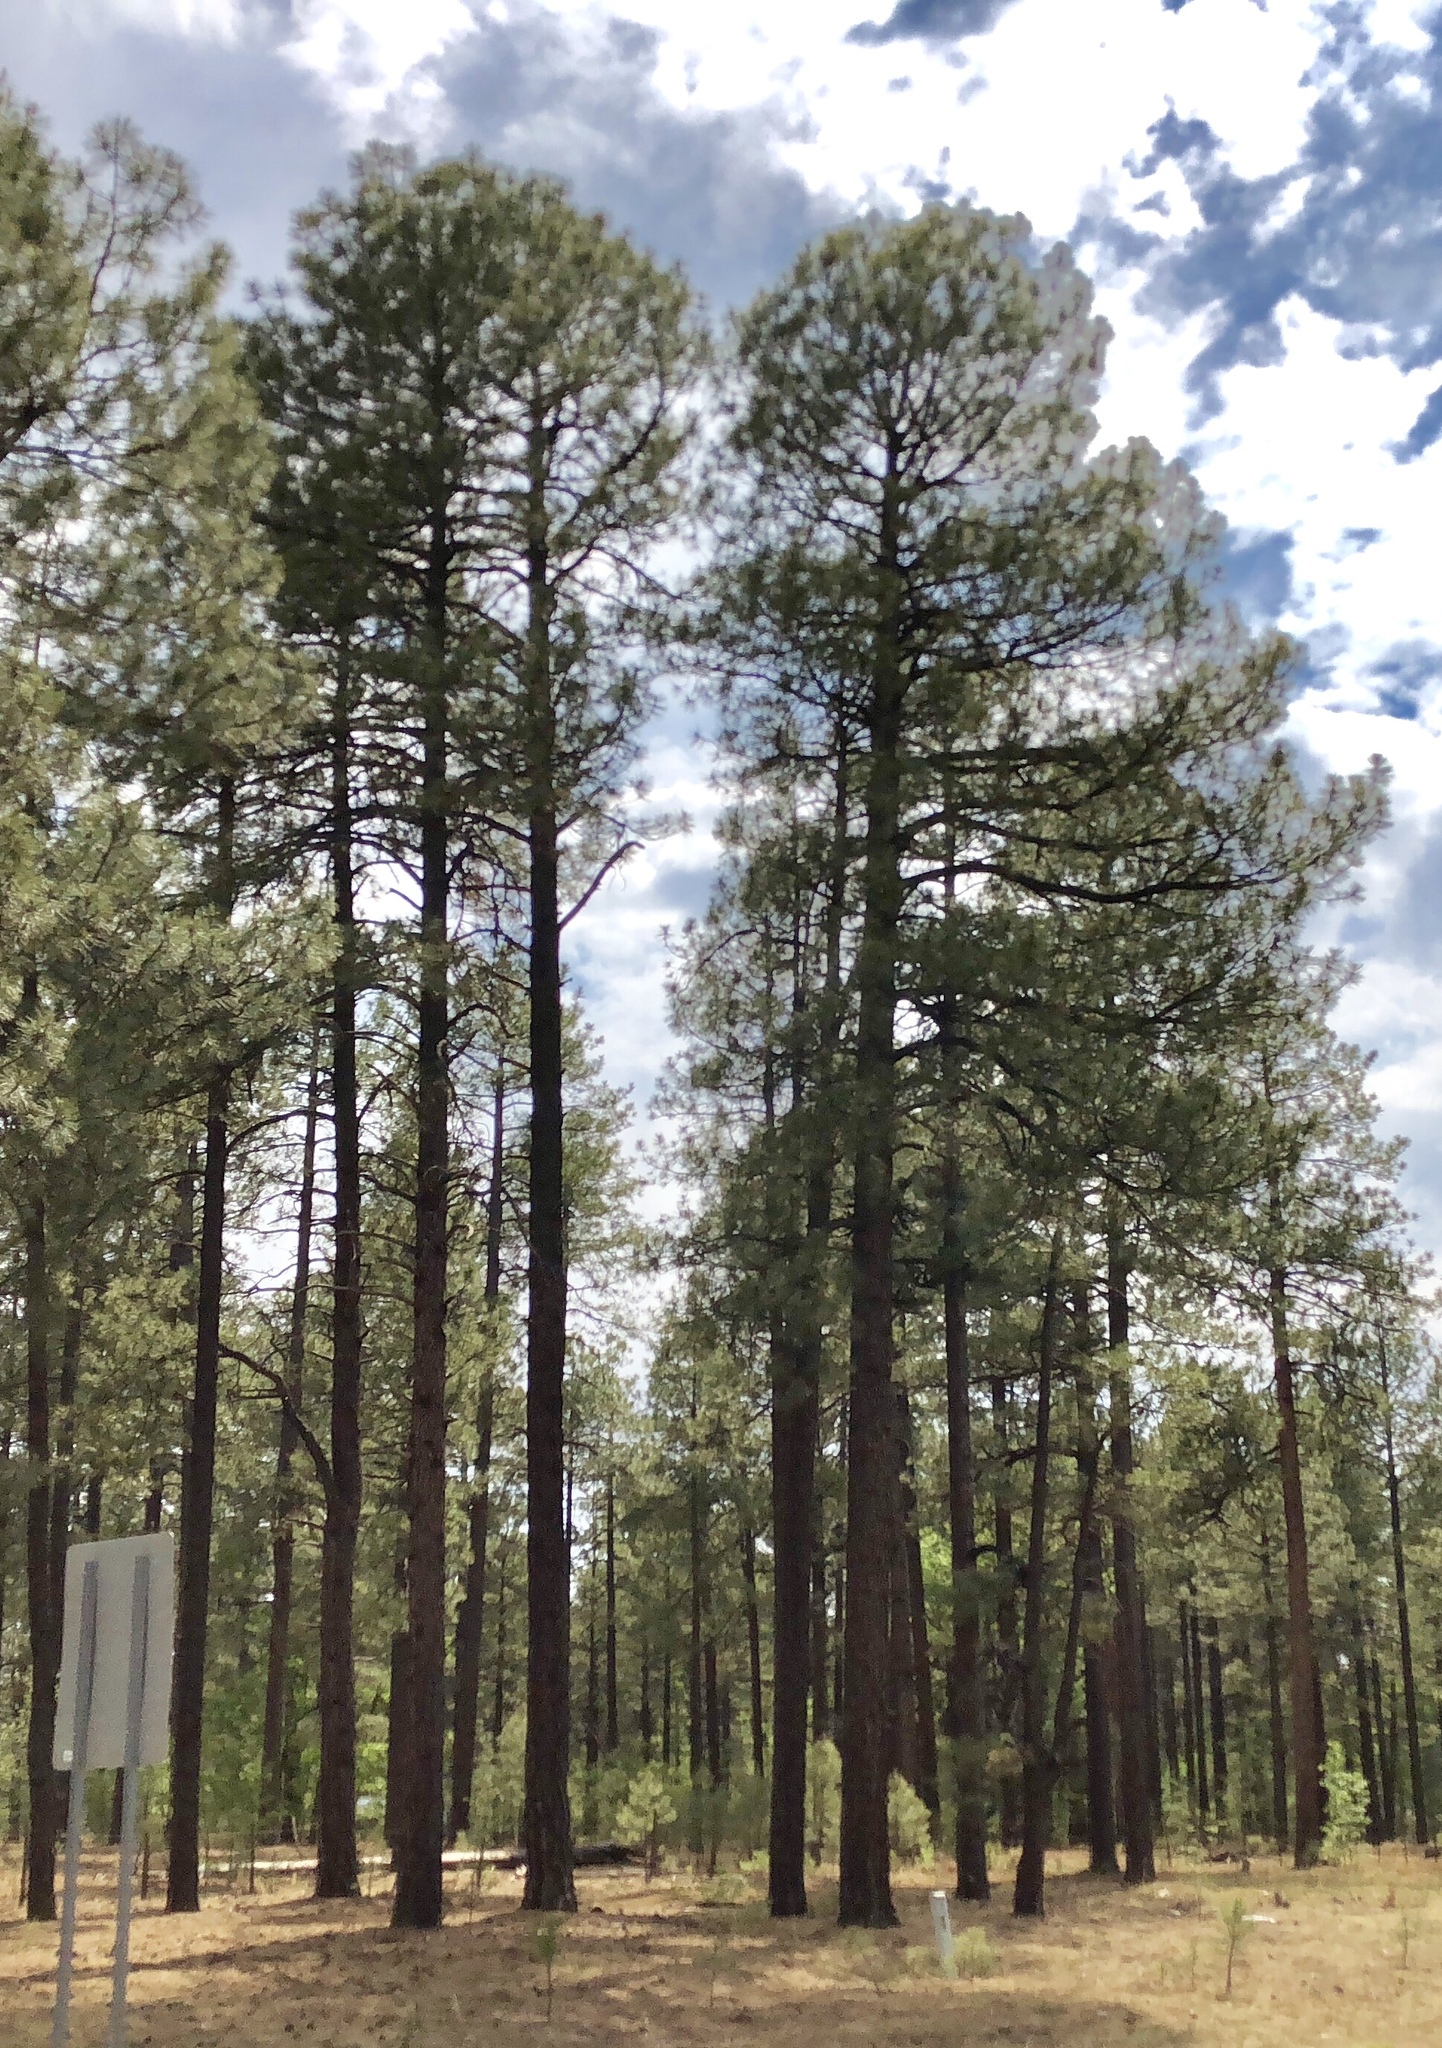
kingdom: Plantae
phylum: Tracheophyta
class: Pinopsida
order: Pinales
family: Pinaceae
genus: Pinus
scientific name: Pinus ponderosa
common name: Western yellow-pine
